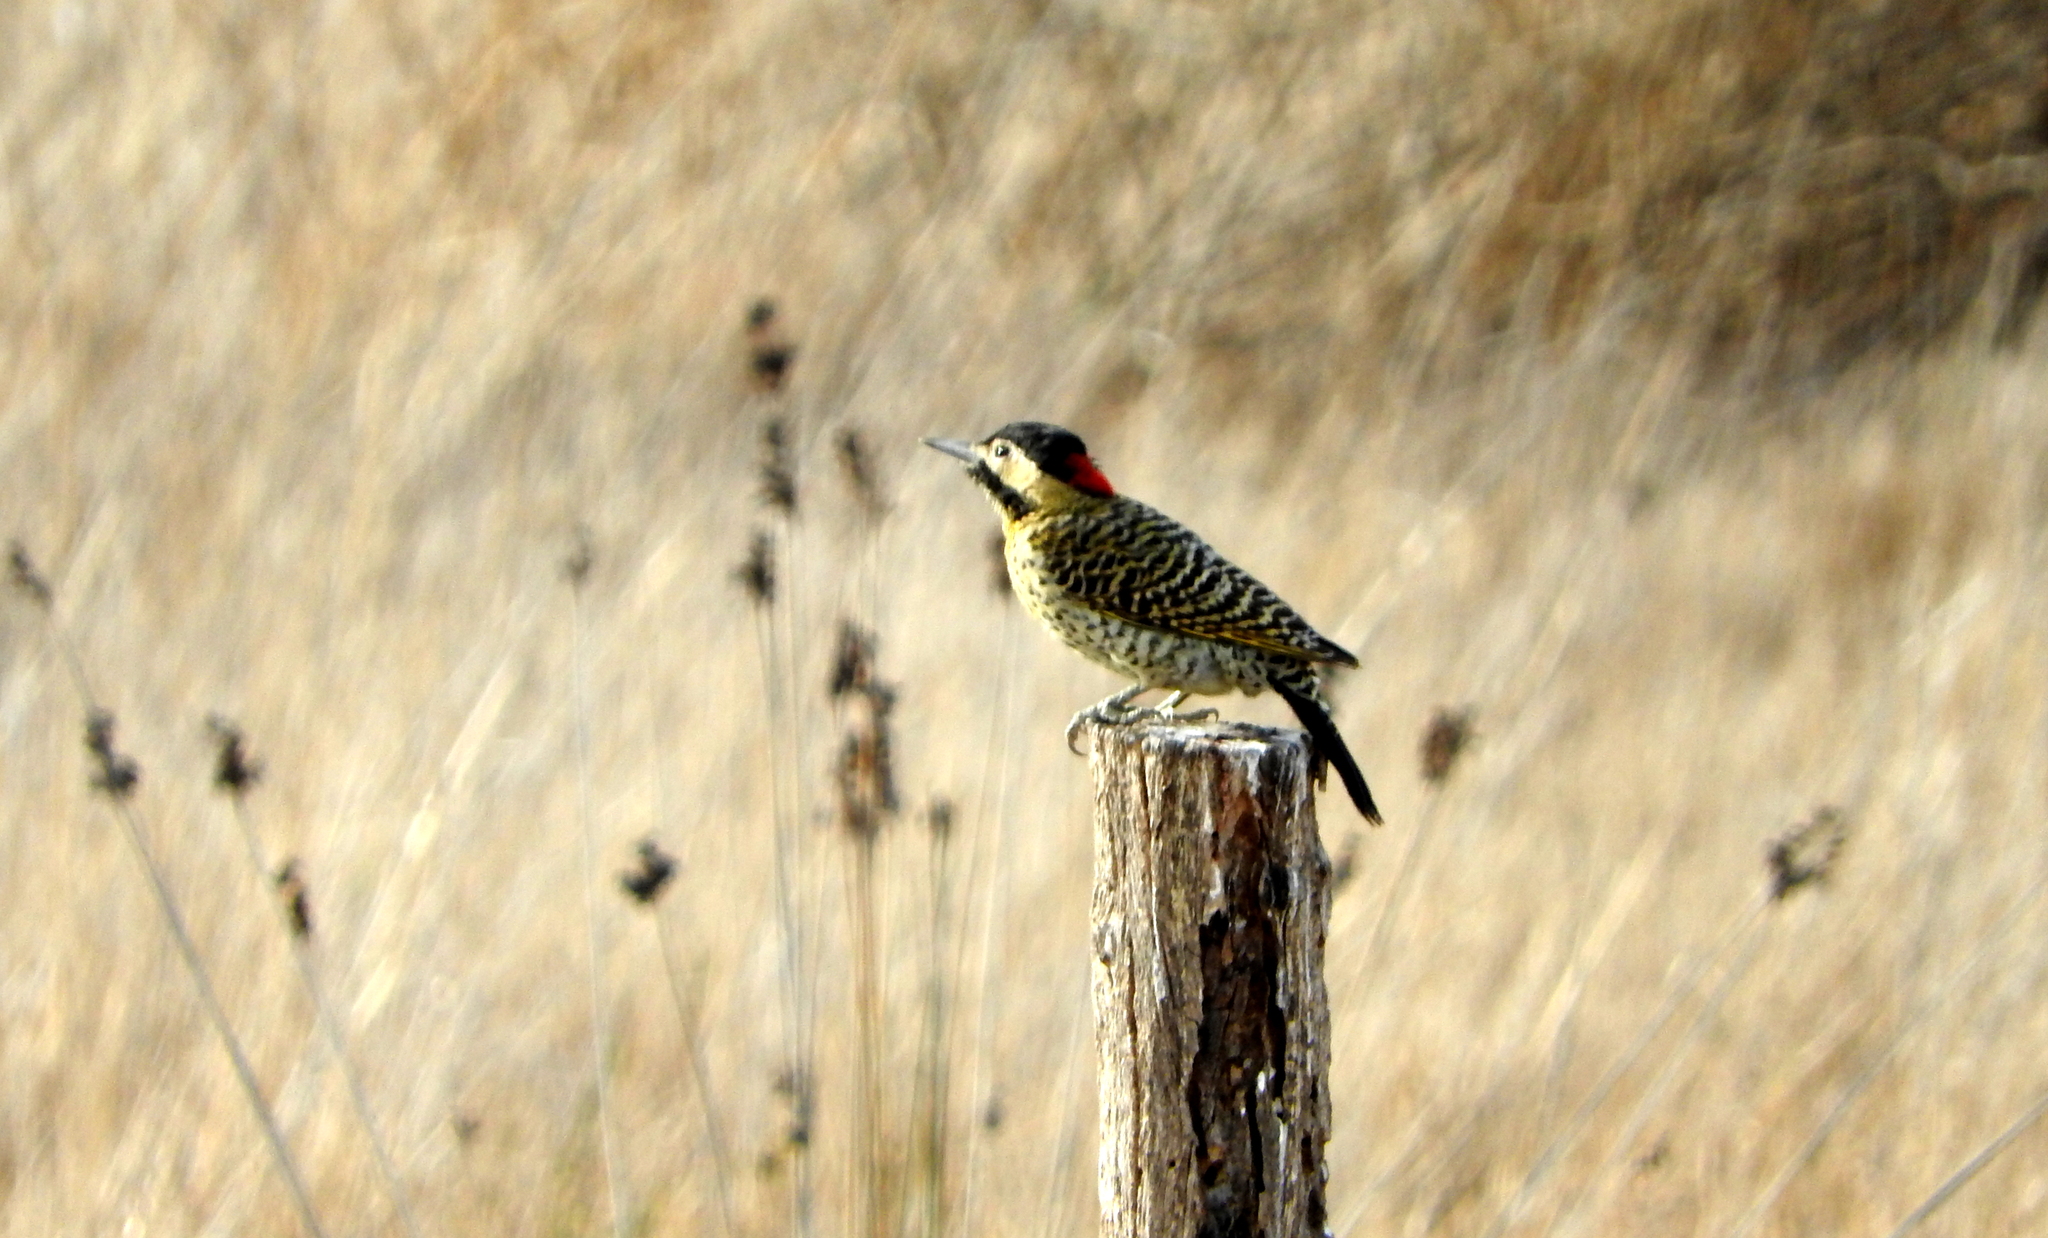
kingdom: Animalia
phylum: Chordata
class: Aves
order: Piciformes
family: Picidae
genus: Colaptes
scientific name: Colaptes melanochloros
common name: Green-barred woodpecker
